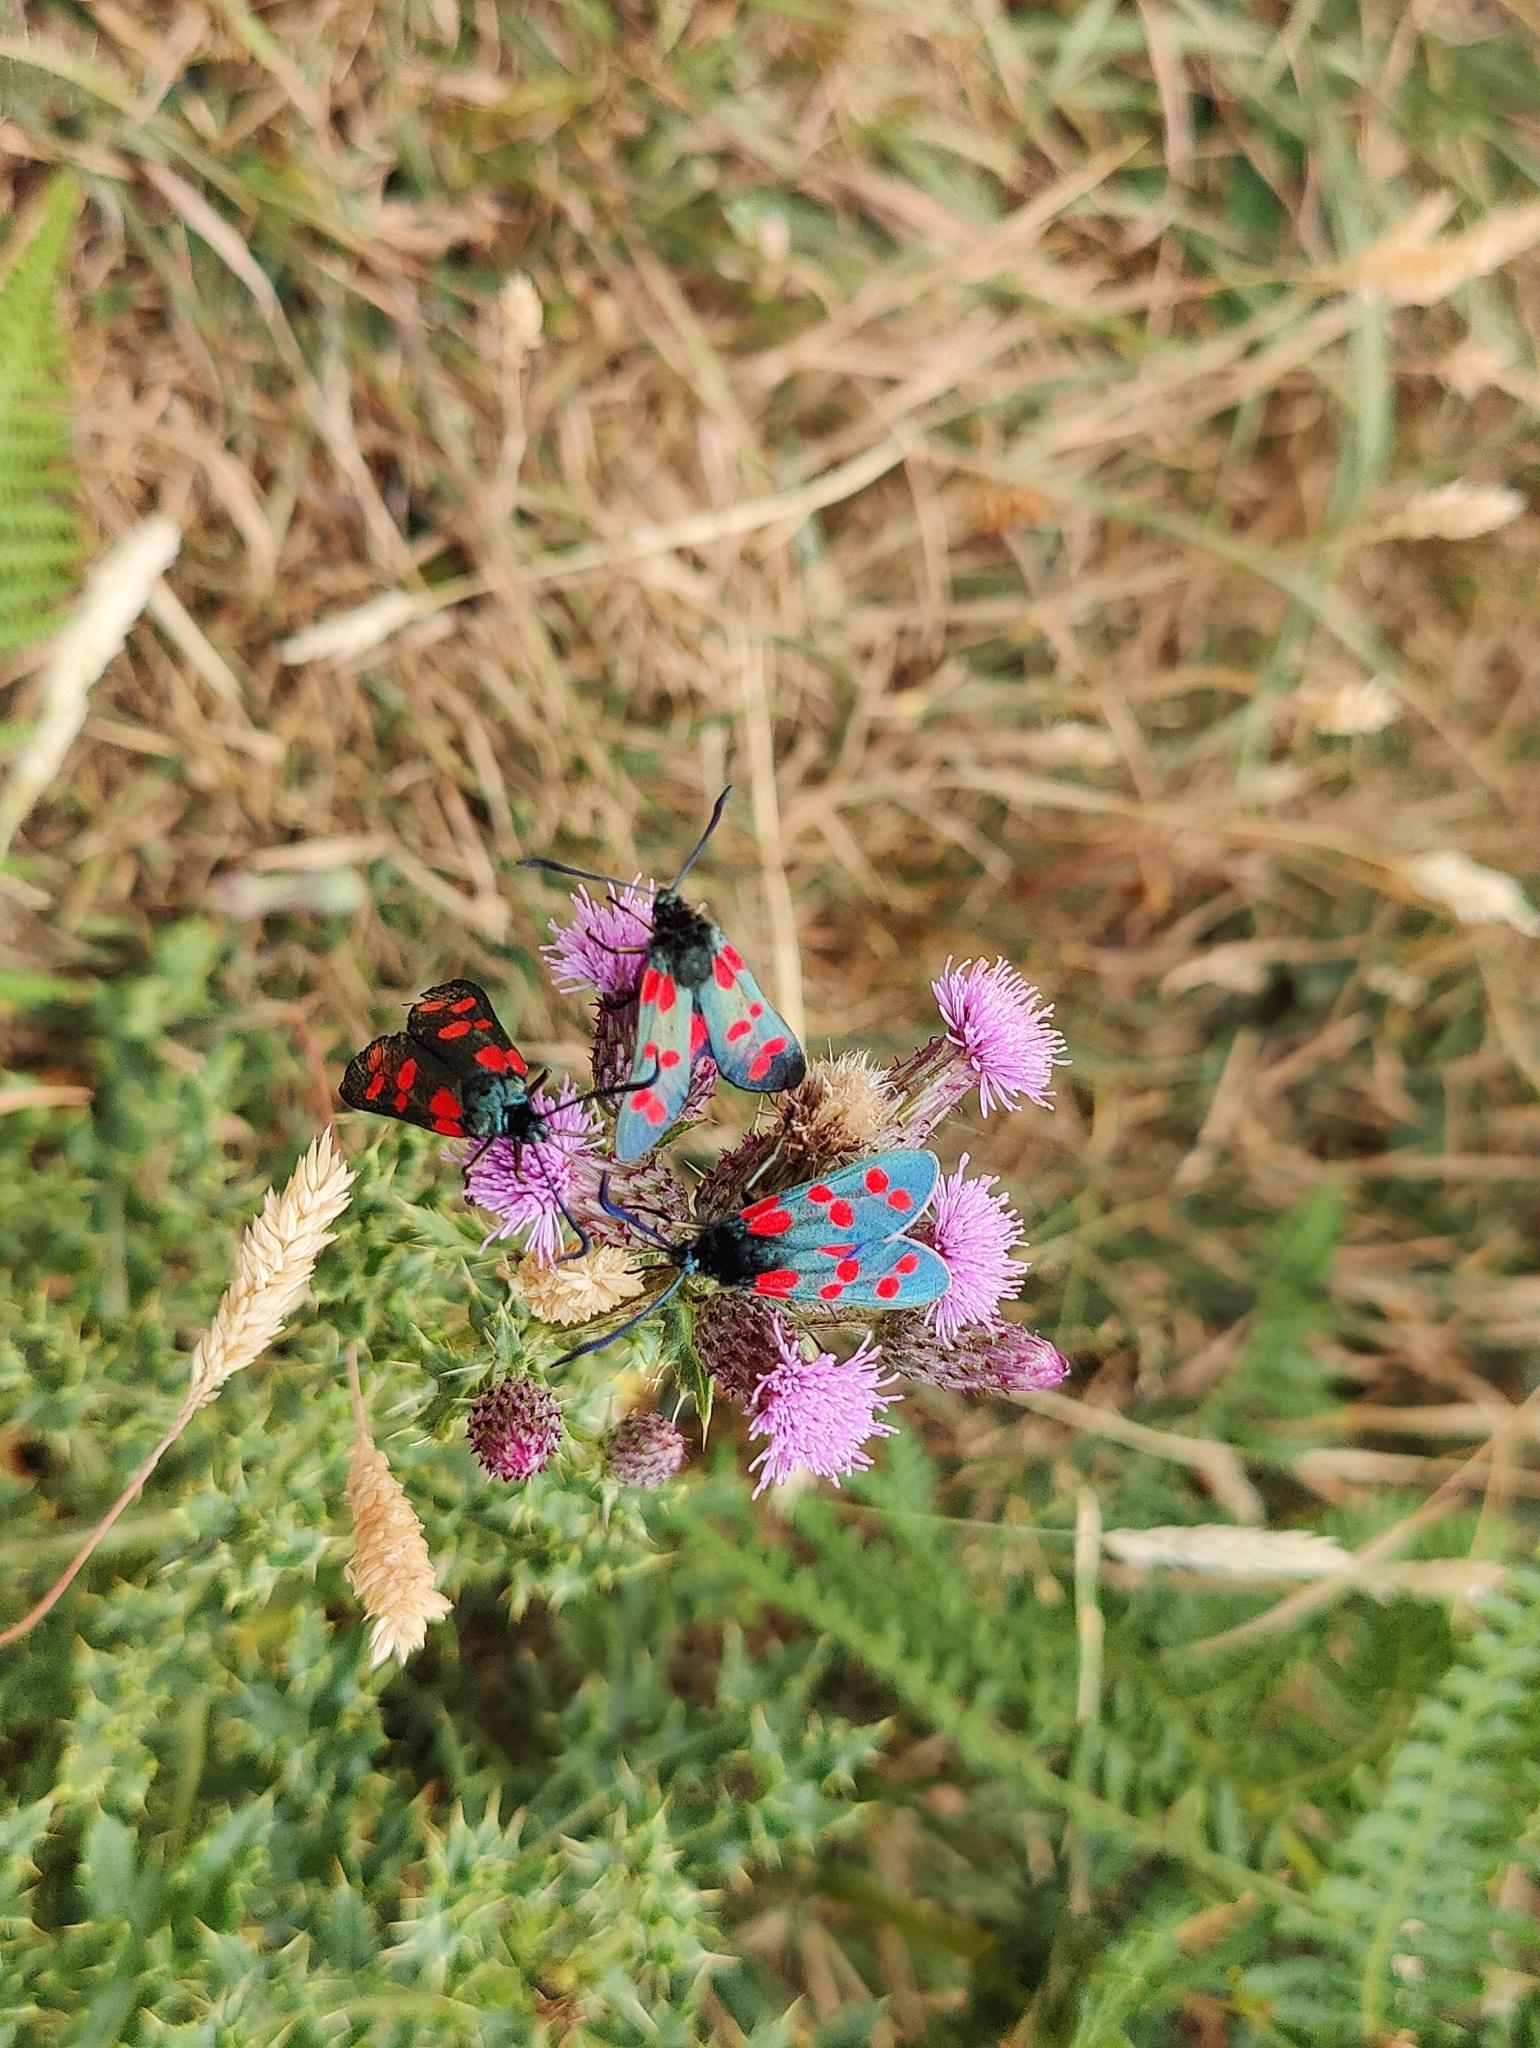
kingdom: Animalia
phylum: Arthropoda
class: Insecta
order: Lepidoptera
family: Zygaenidae
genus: Zygaena
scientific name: Zygaena filipendulae
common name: Six-spot burnet
